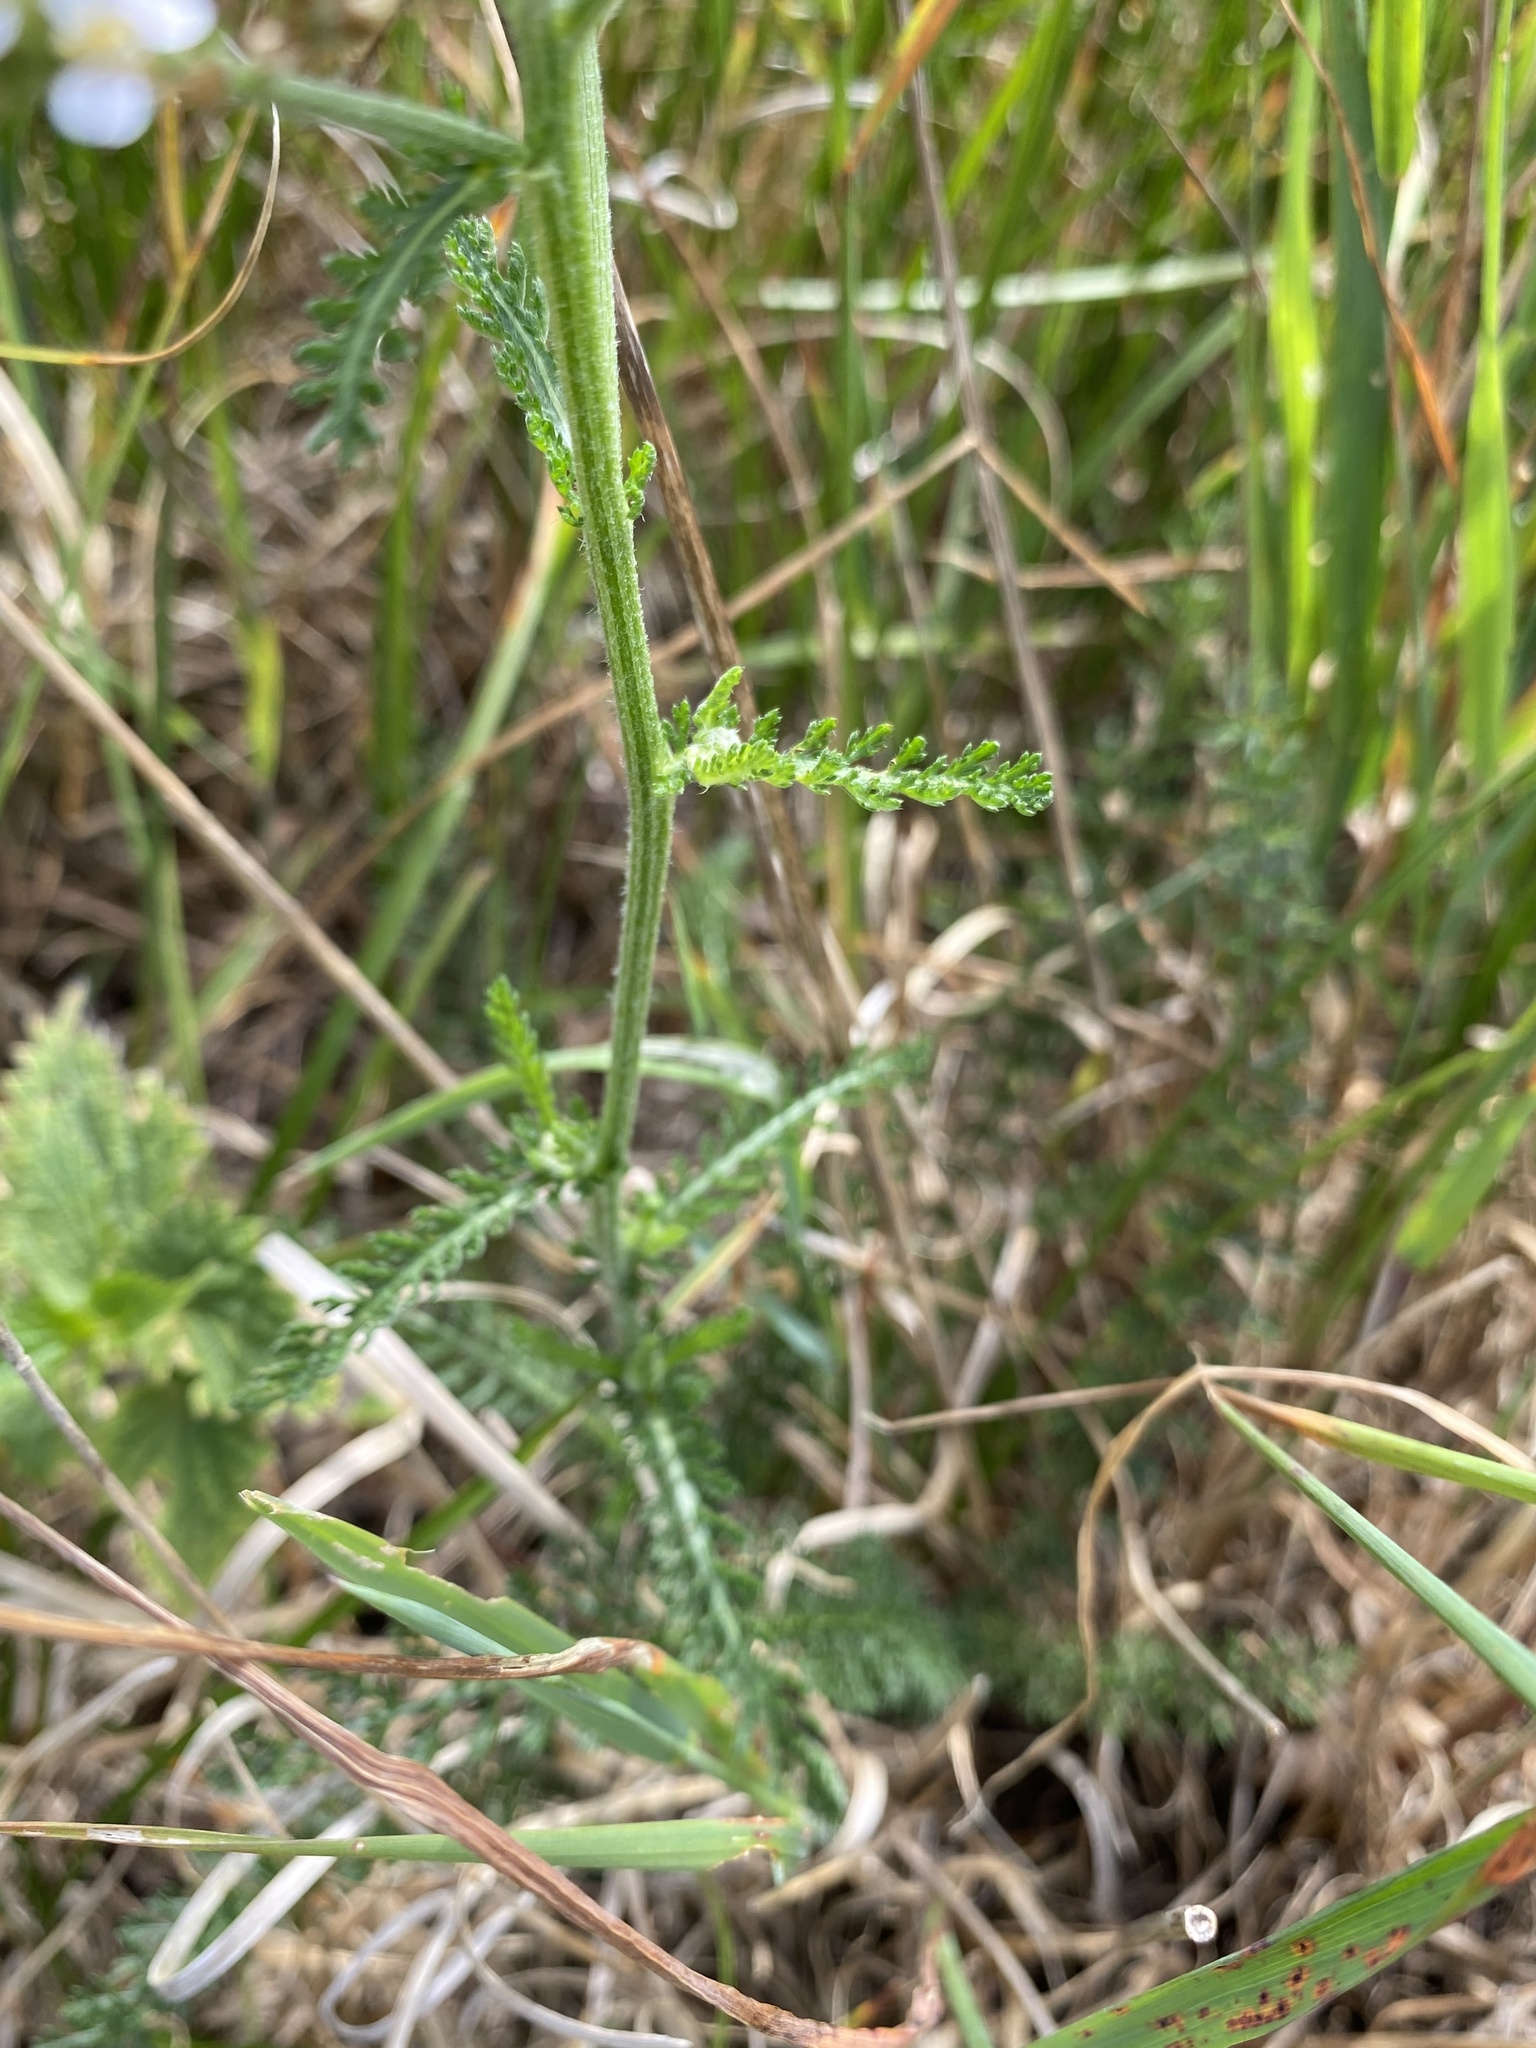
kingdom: Plantae
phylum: Tracheophyta
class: Magnoliopsida
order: Asterales
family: Asteraceae
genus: Achillea
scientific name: Achillea millefolium
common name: Yarrow
